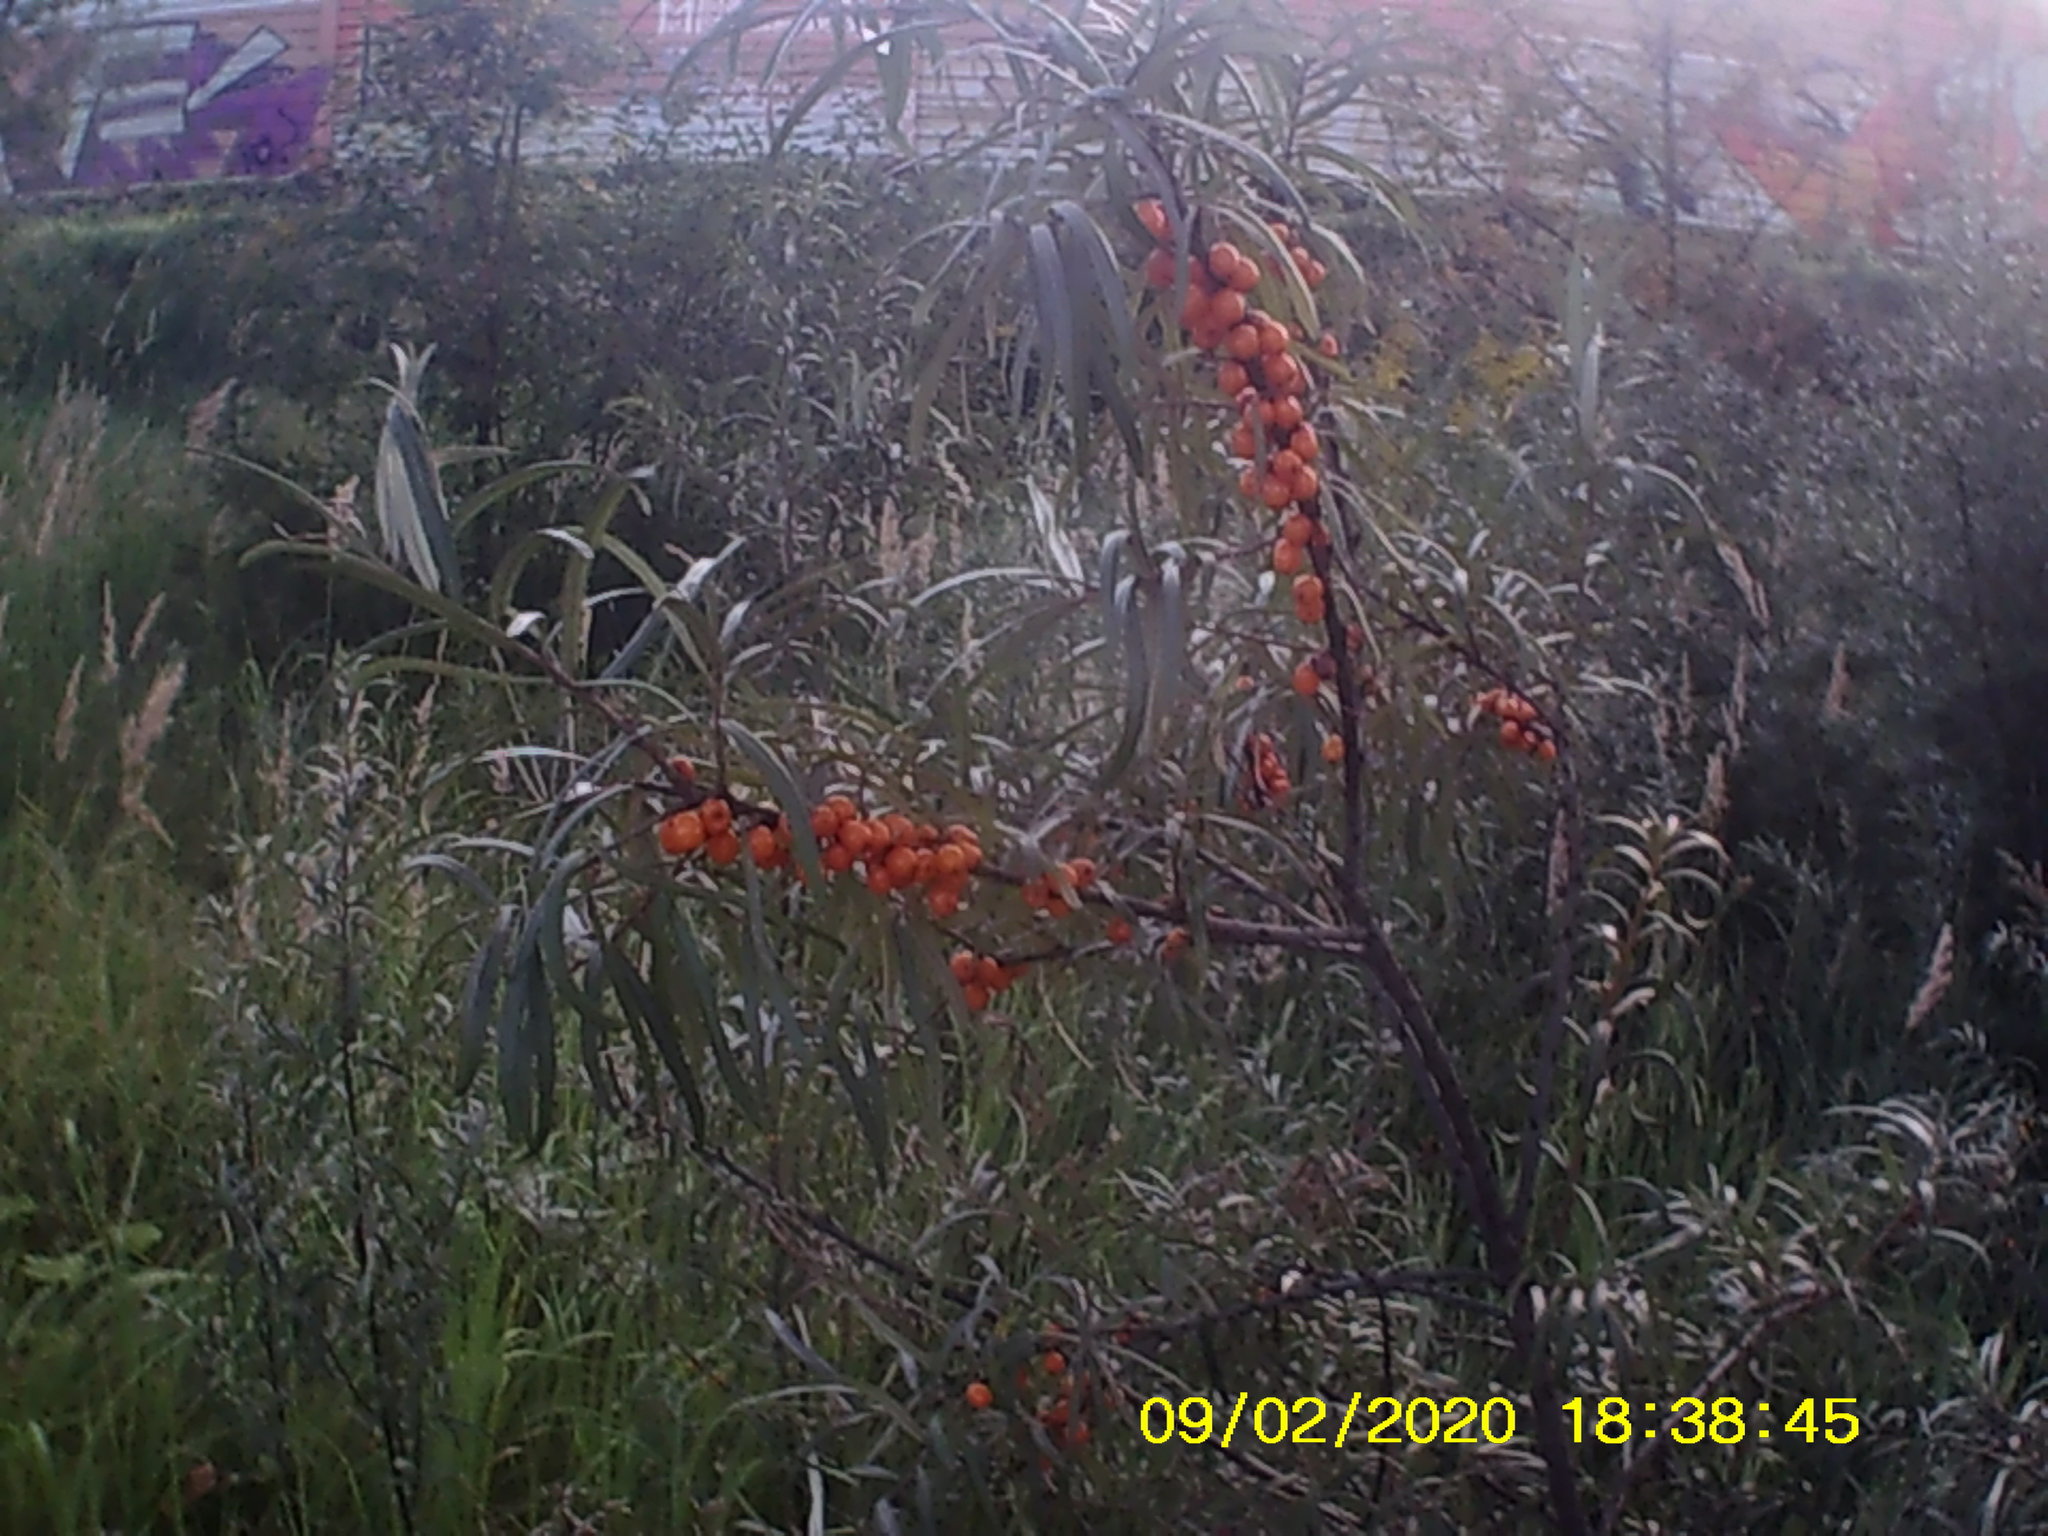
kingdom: Plantae
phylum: Tracheophyta
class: Magnoliopsida
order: Rosales
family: Elaeagnaceae
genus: Hippophae
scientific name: Hippophae rhamnoides
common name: Sea-buckthorn
